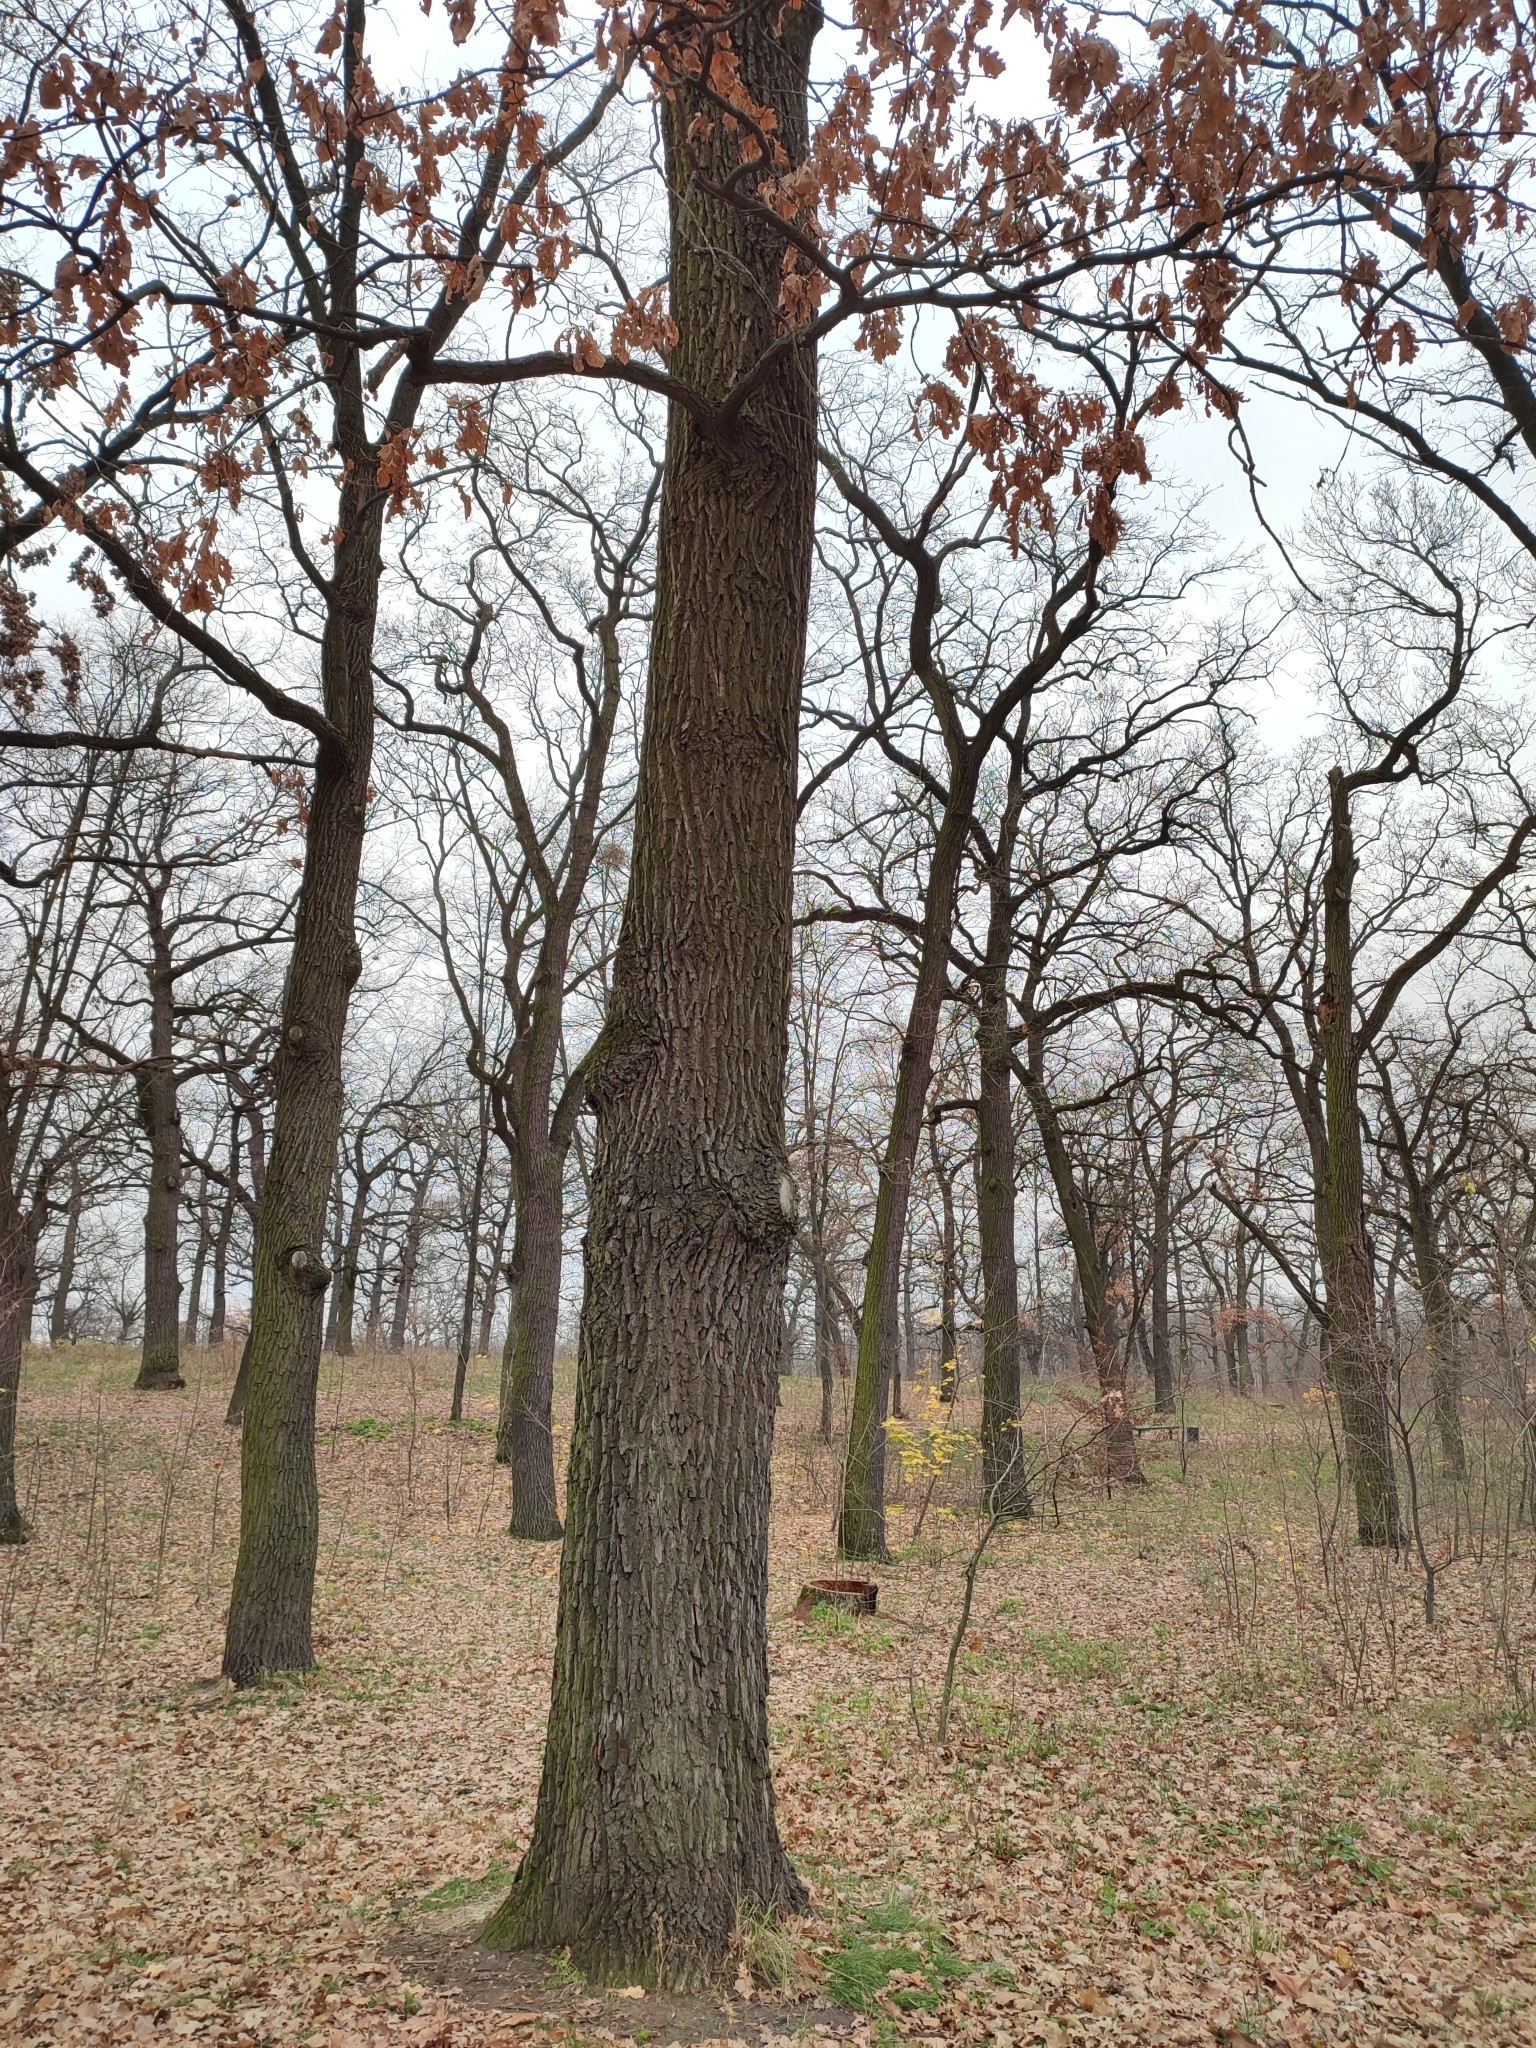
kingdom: Plantae
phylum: Tracheophyta
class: Magnoliopsida
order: Fagales
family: Fagaceae
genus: Quercus
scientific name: Quercus robur
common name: Pedunculate oak
